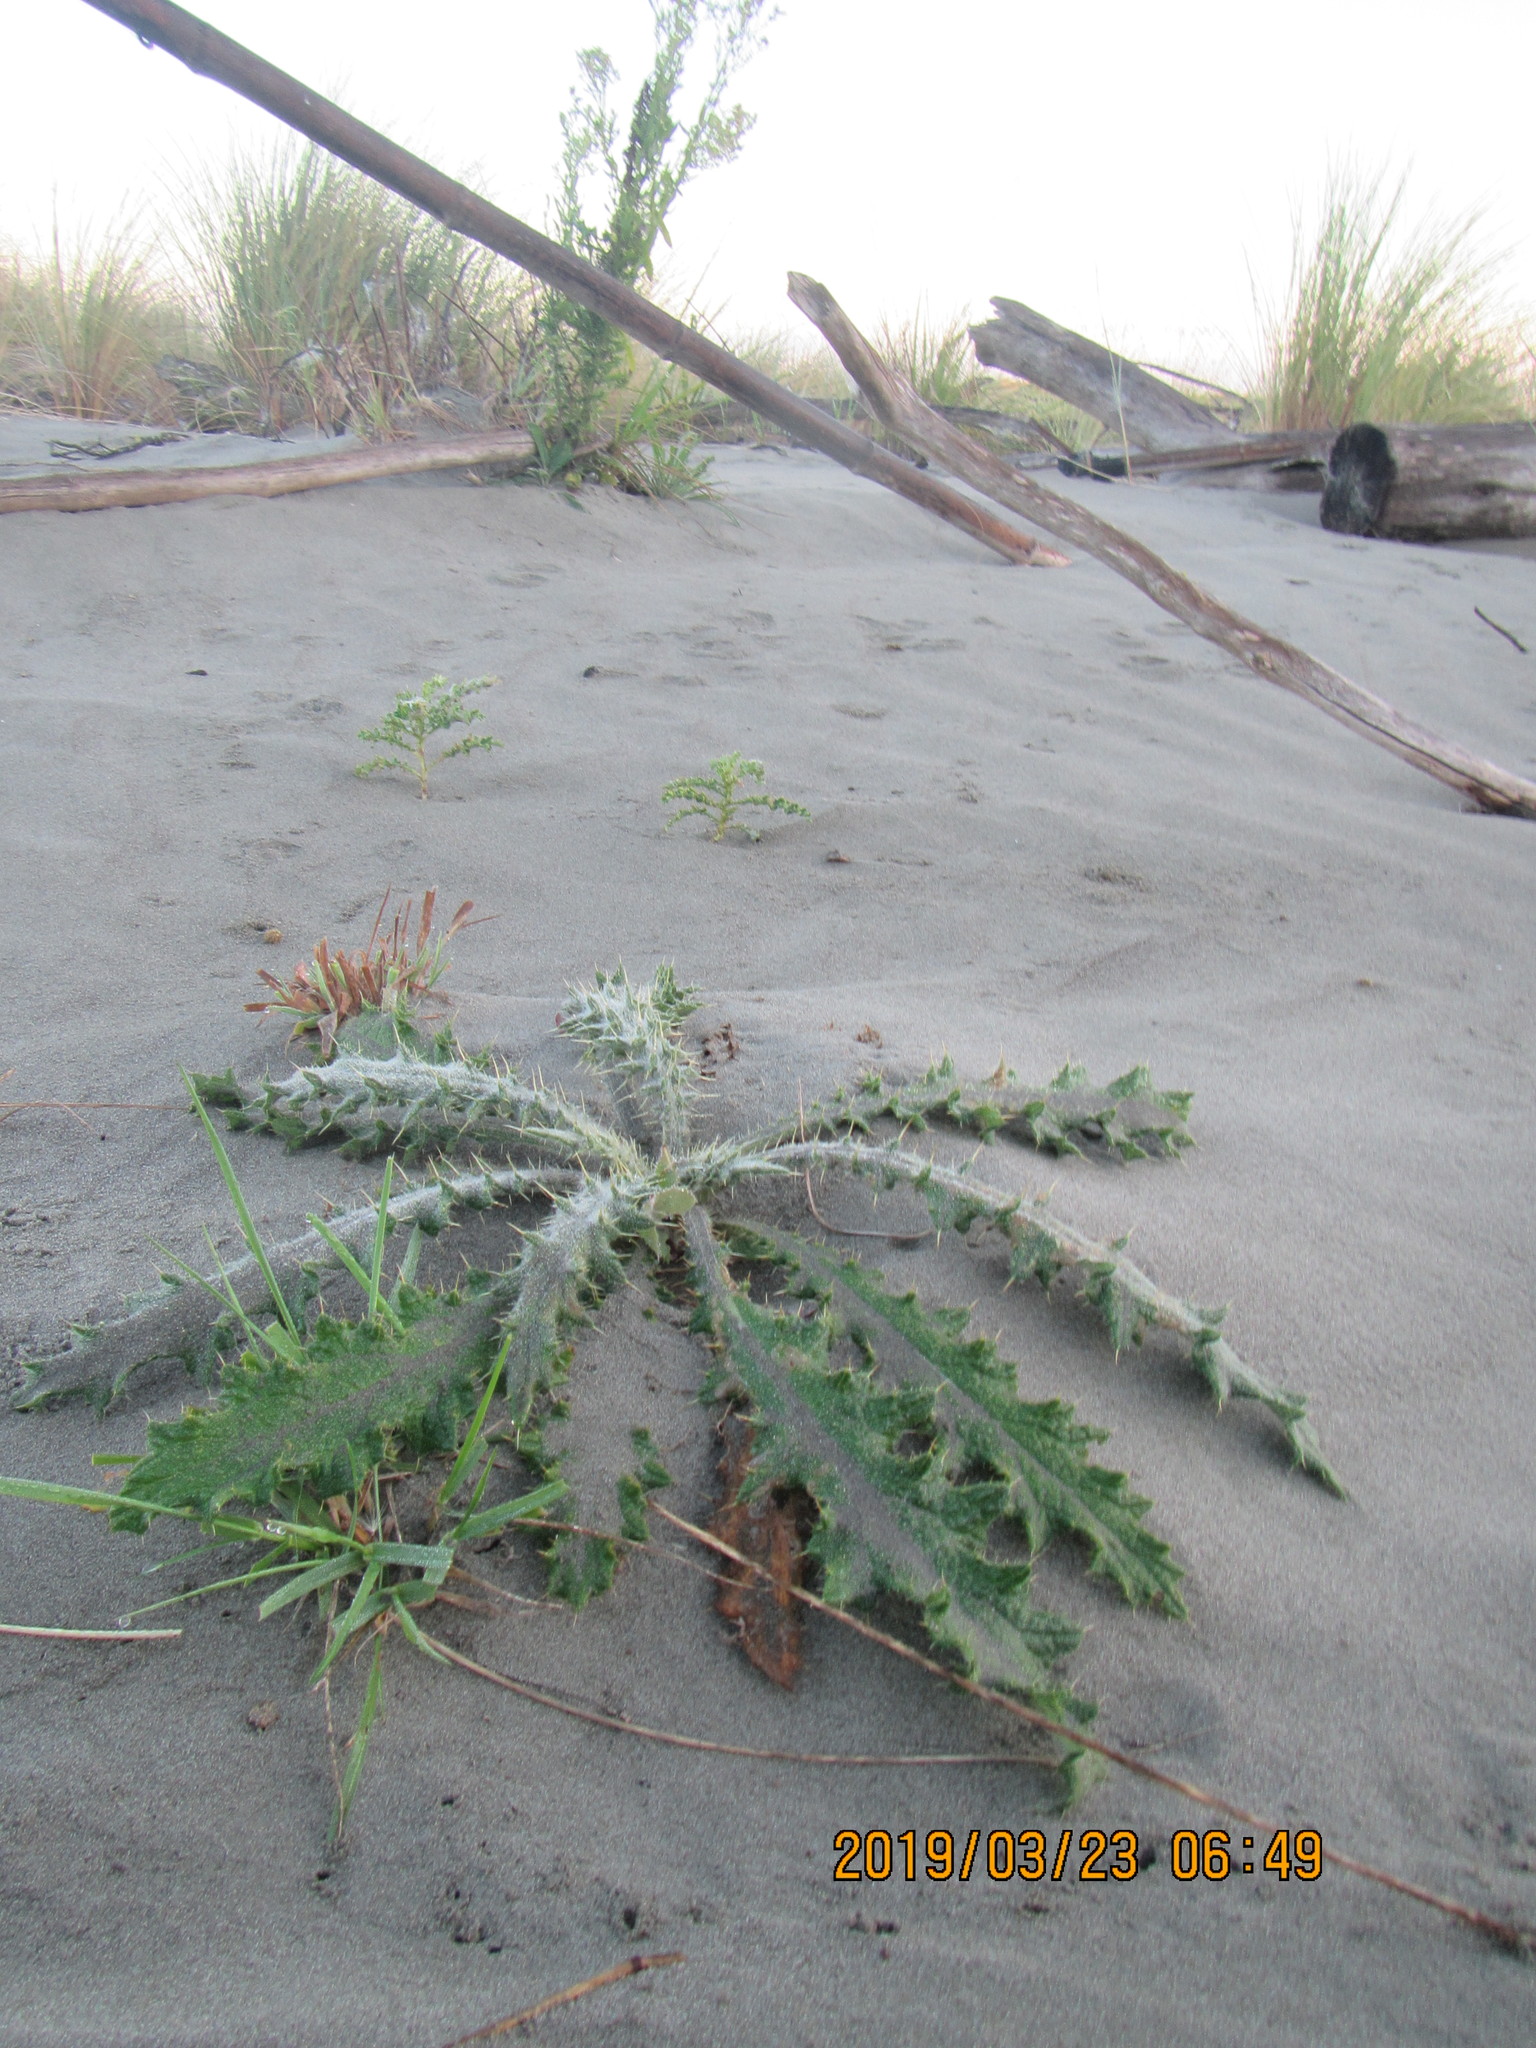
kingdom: Plantae
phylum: Tracheophyta
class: Magnoliopsida
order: Asterales
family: Asteraceae
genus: Cirsium
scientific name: Cirsium vulgare
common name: Bull thistle
